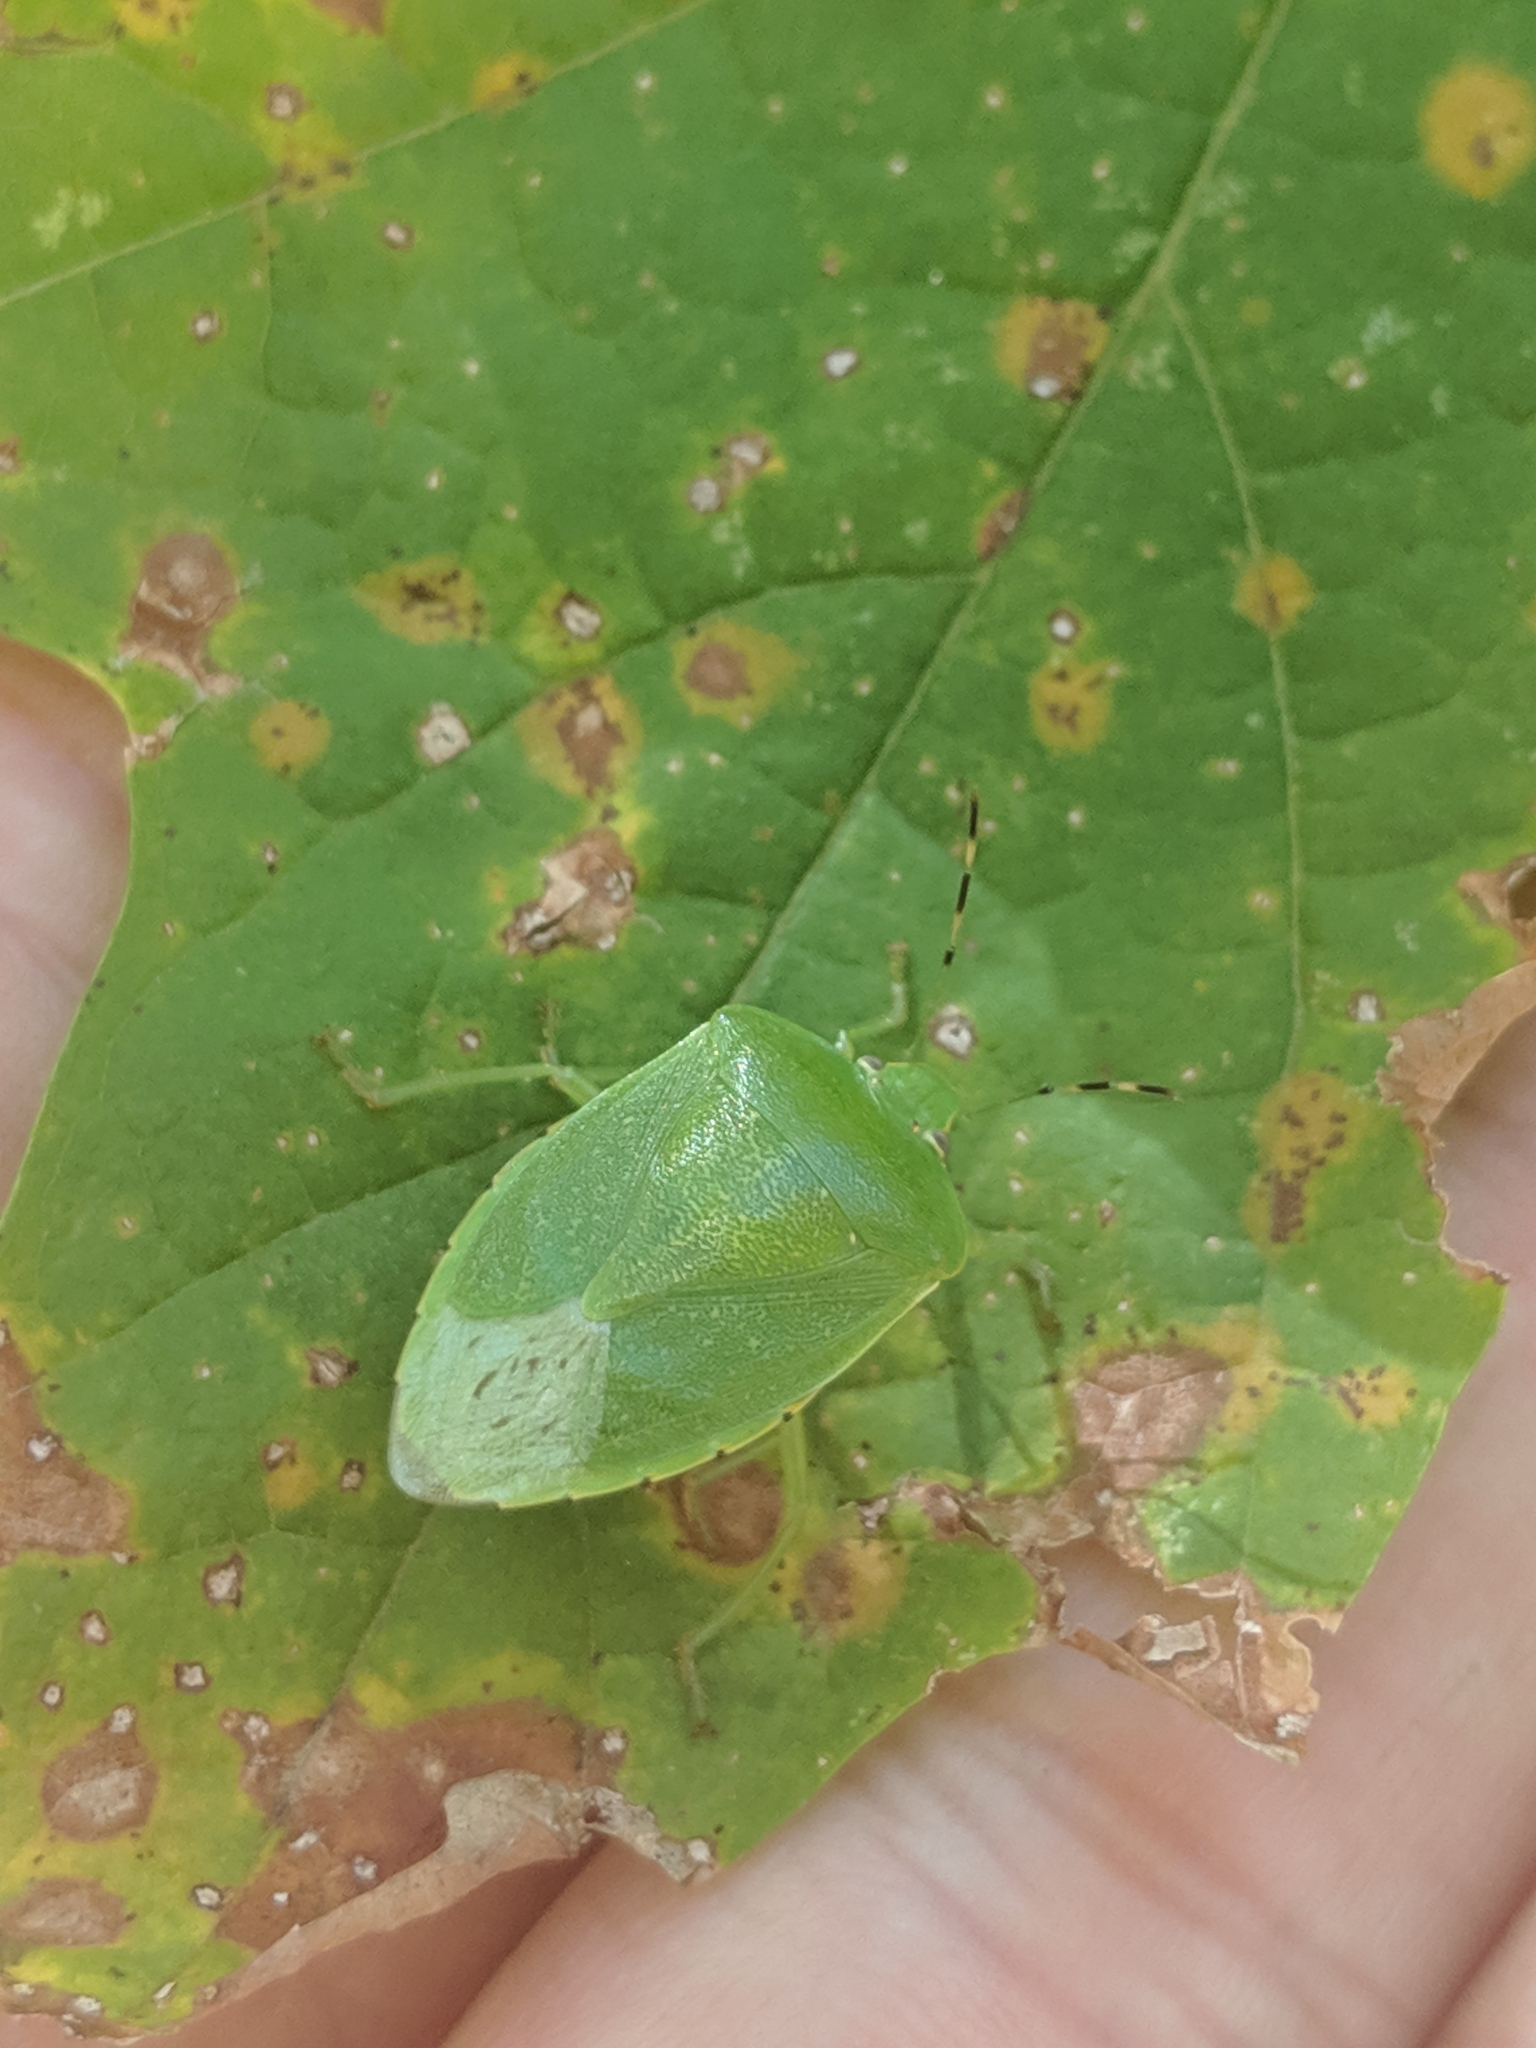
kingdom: Animalia
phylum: Arthropoda
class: Insecta
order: Hemiptera
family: Pentatomidae
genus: Chinavia
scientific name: Chinavia hilaris
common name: Green stink bug
